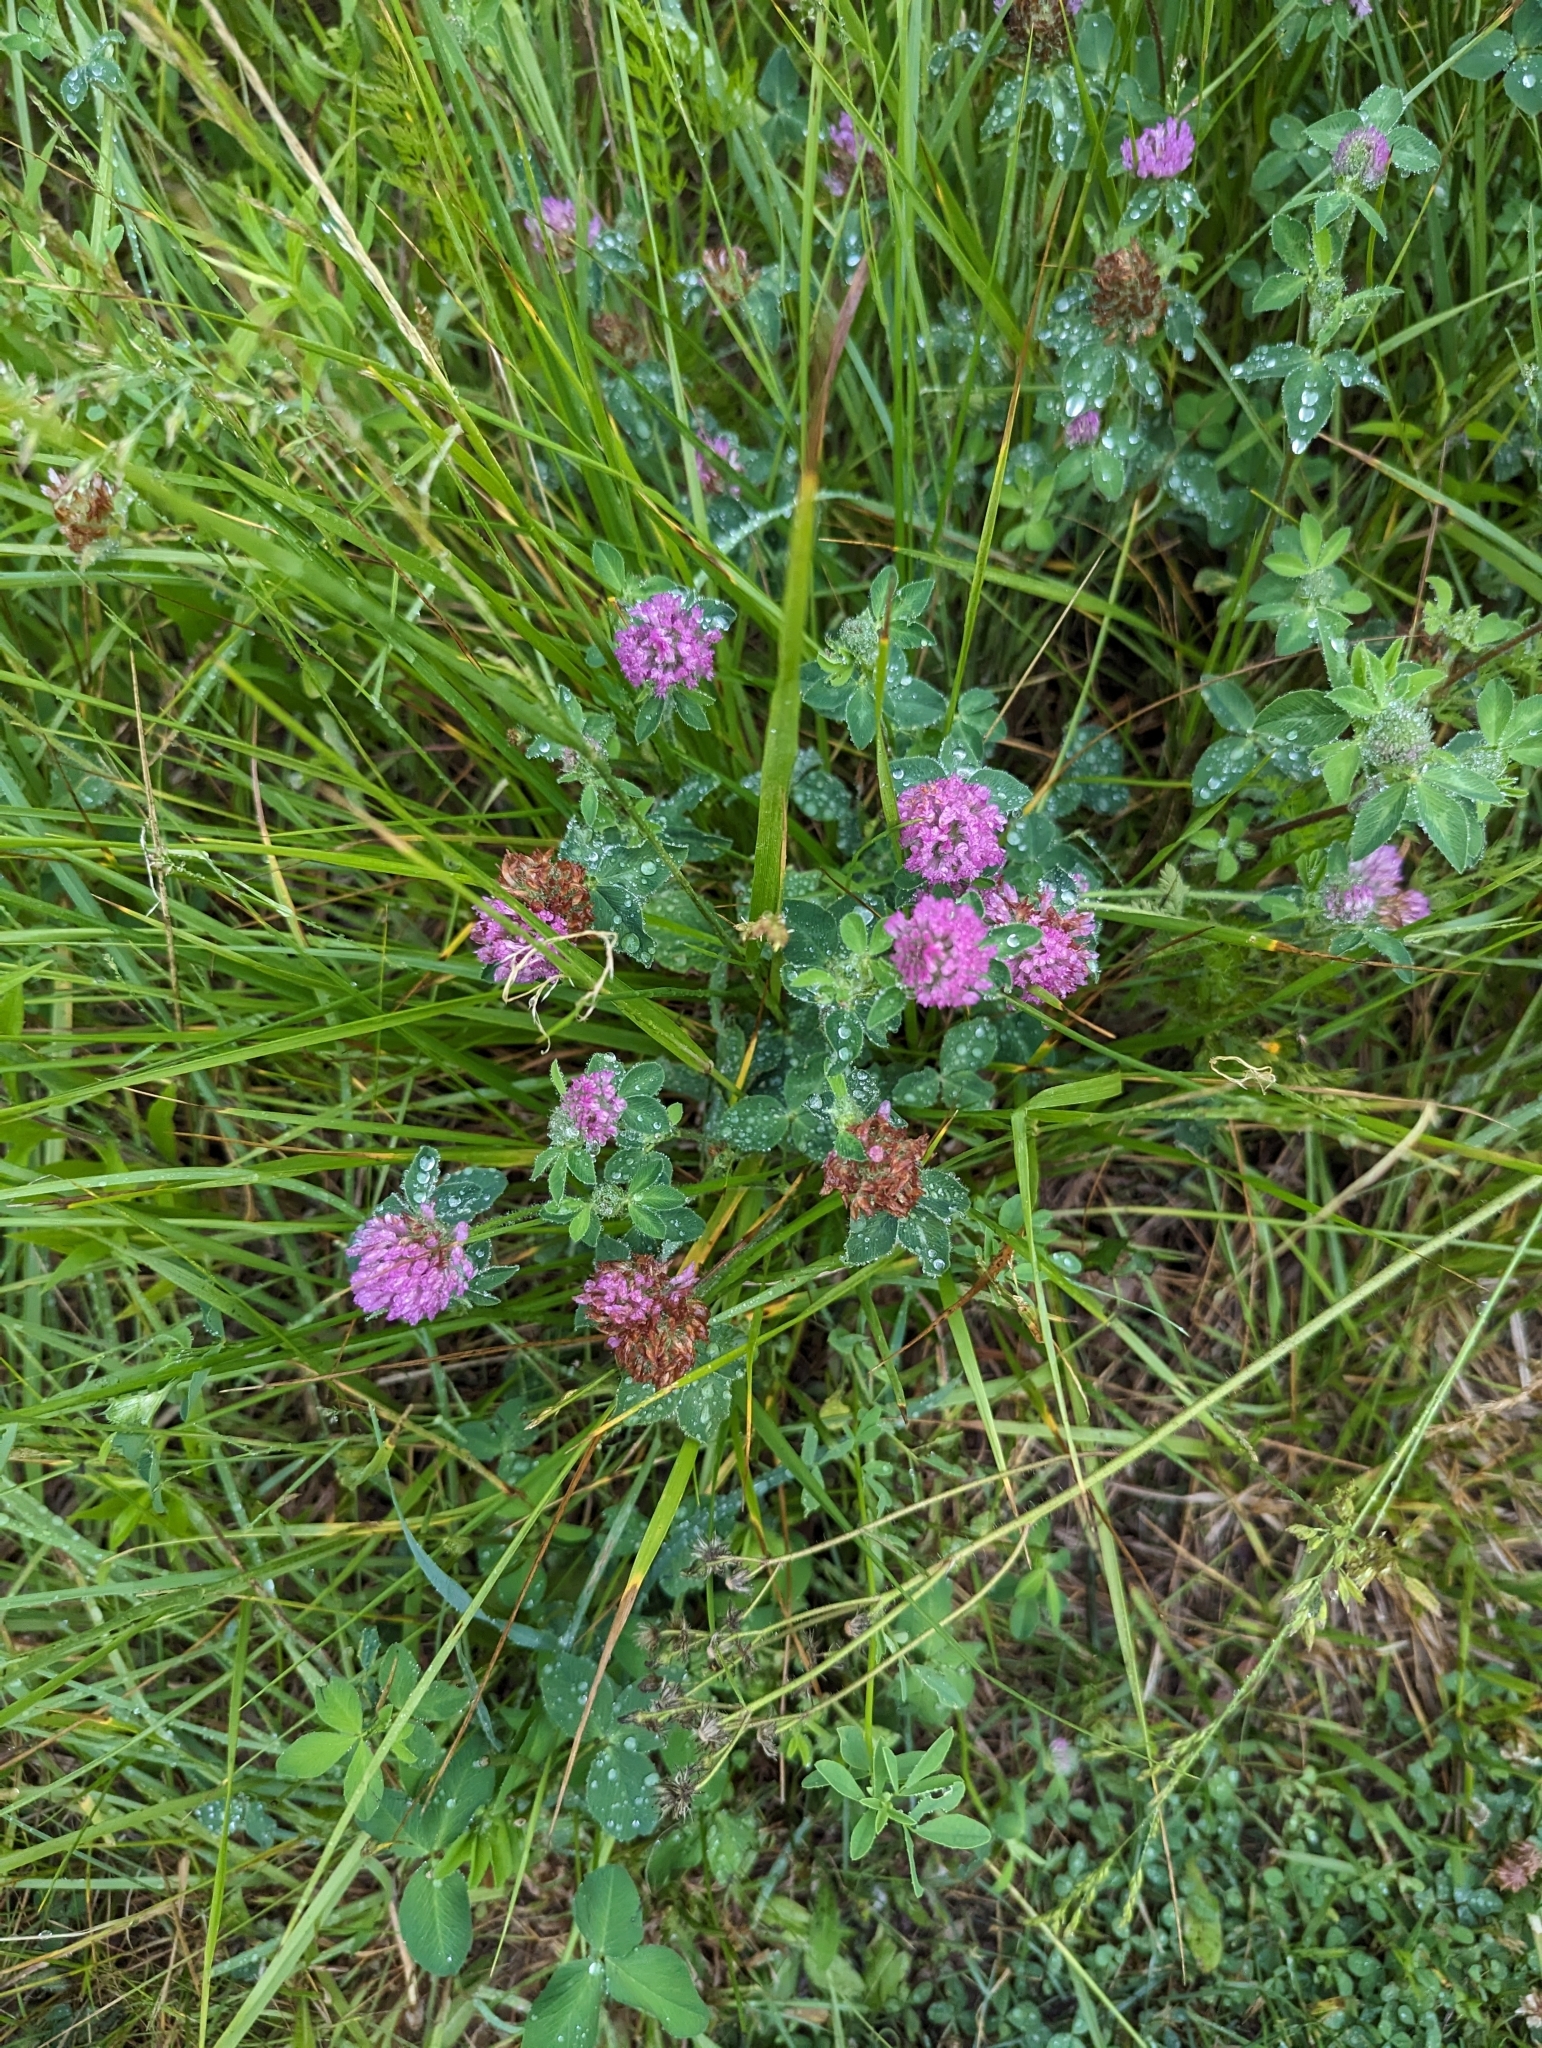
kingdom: Plantae
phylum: Tracheophyta
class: Magnoliopsida
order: Fabales
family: Fabaceae
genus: Trifolium
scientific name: Trifolium pratense
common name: Red clover
